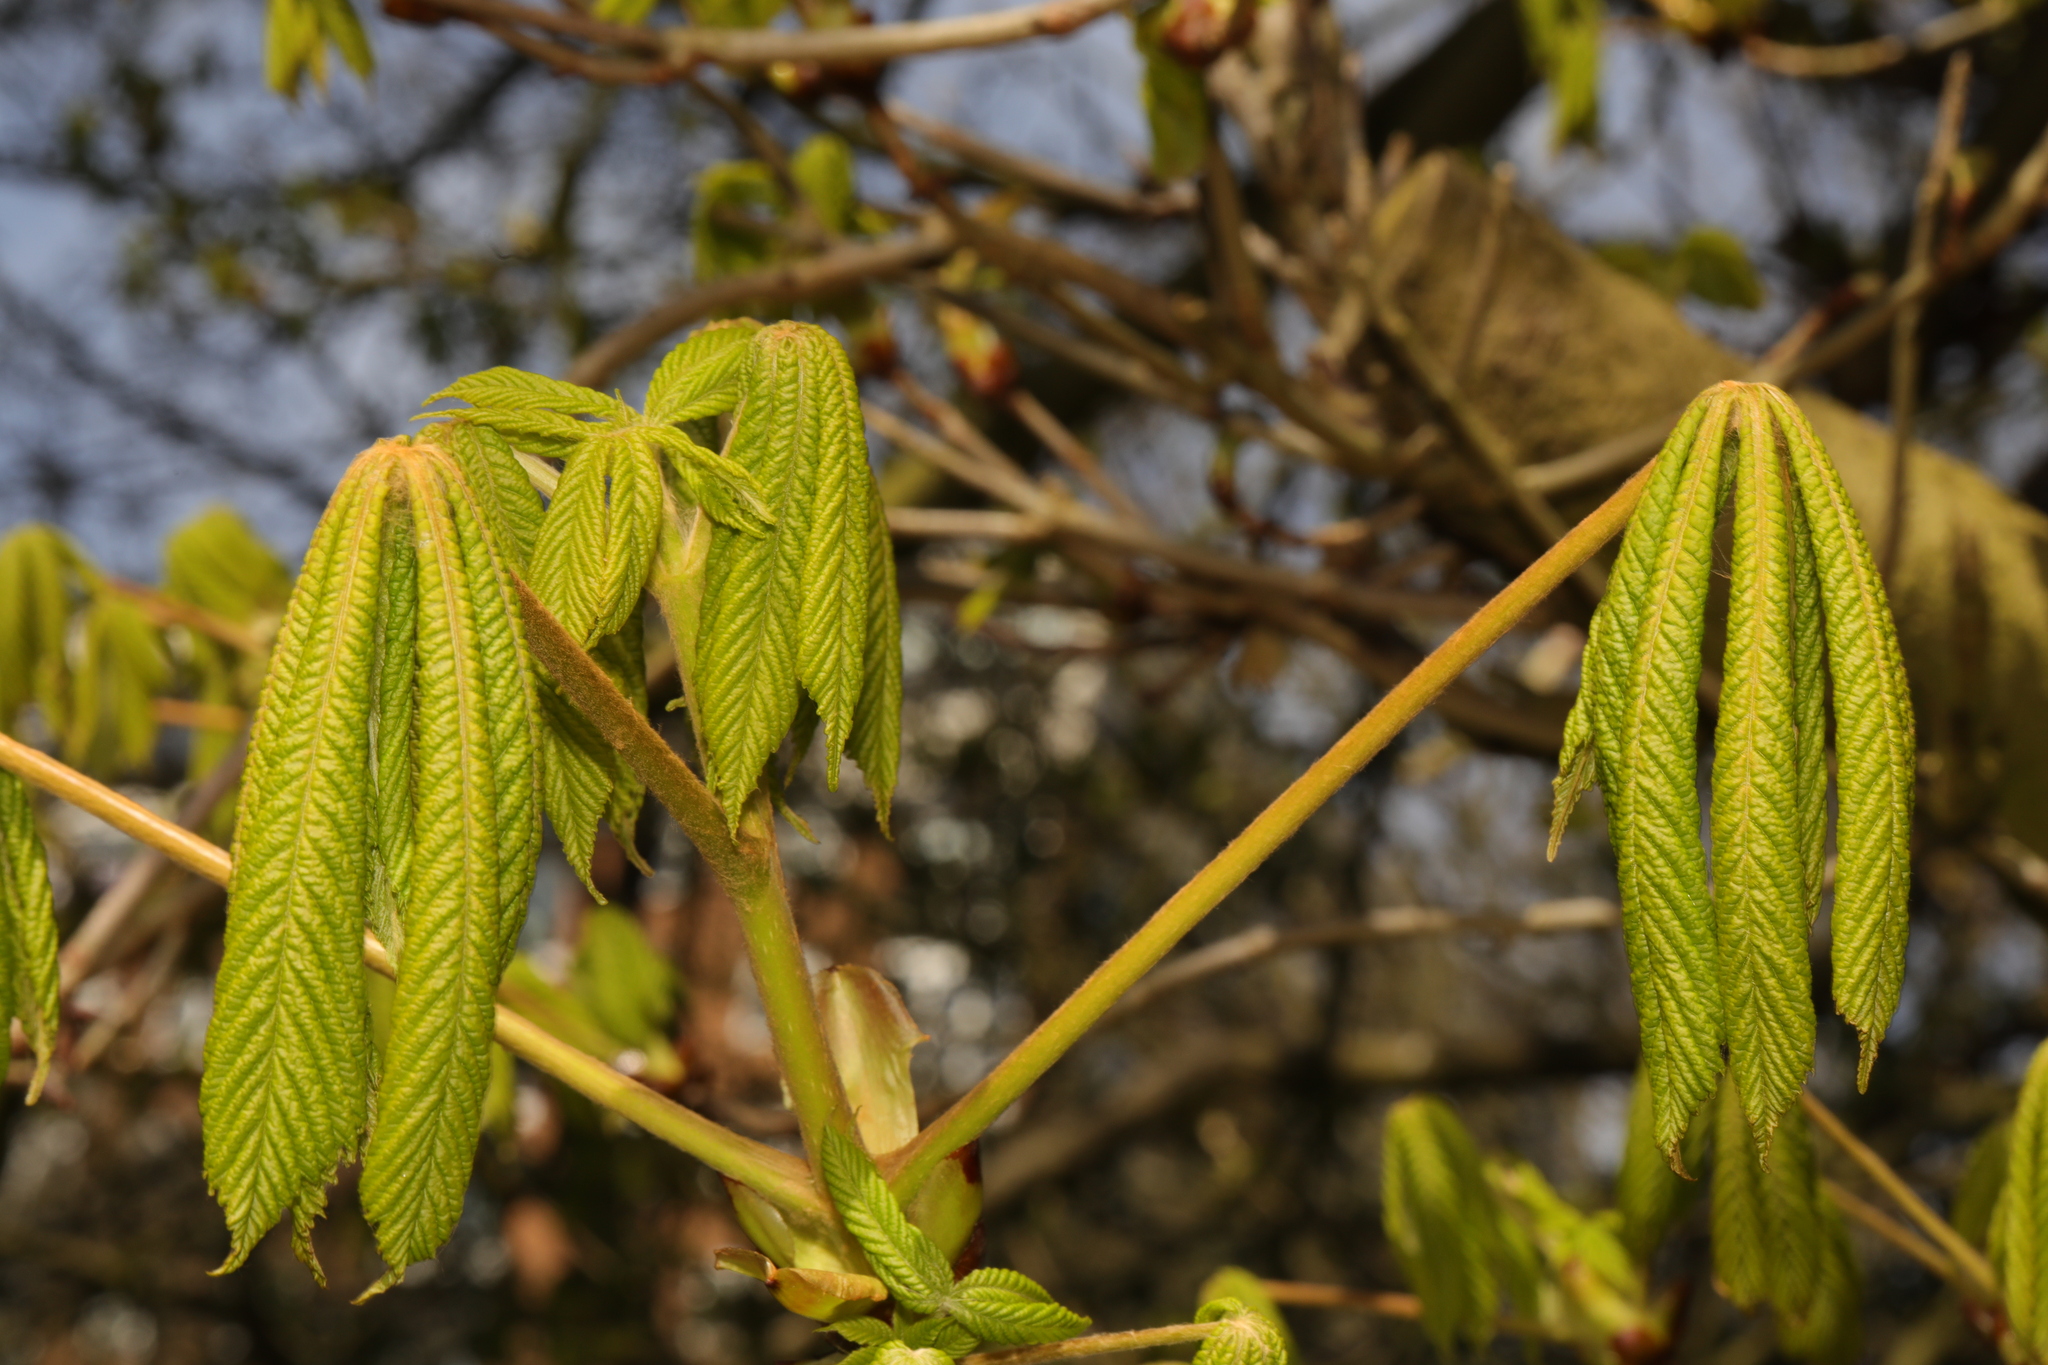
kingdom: Plantae
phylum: Tracheophyta
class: Magnoliopsida
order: Sapindales
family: Sapindaceae
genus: Aesculus
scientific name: Aesculus hippocastanum
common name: Horse-chestnut
